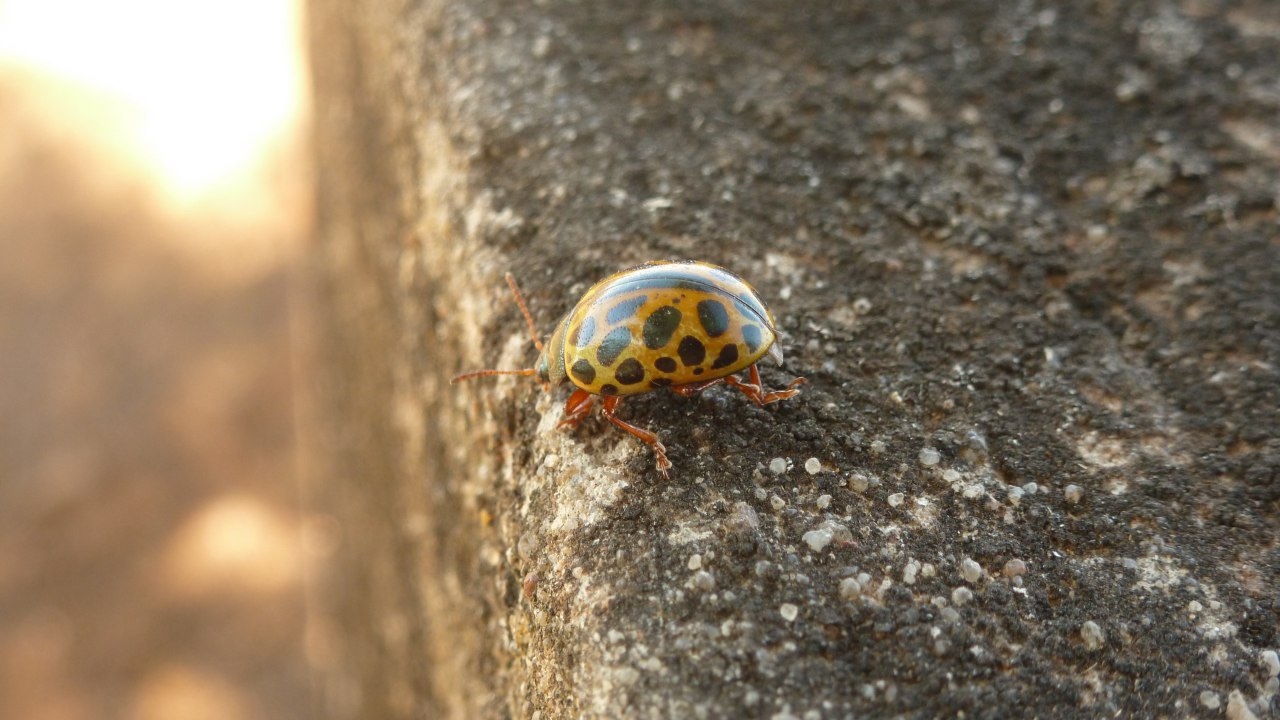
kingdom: Animalia
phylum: Arthropoda
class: Insecta
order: Coleoptera
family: Chrysomelidae
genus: Calligrapha
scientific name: Calligrapha polyspila
